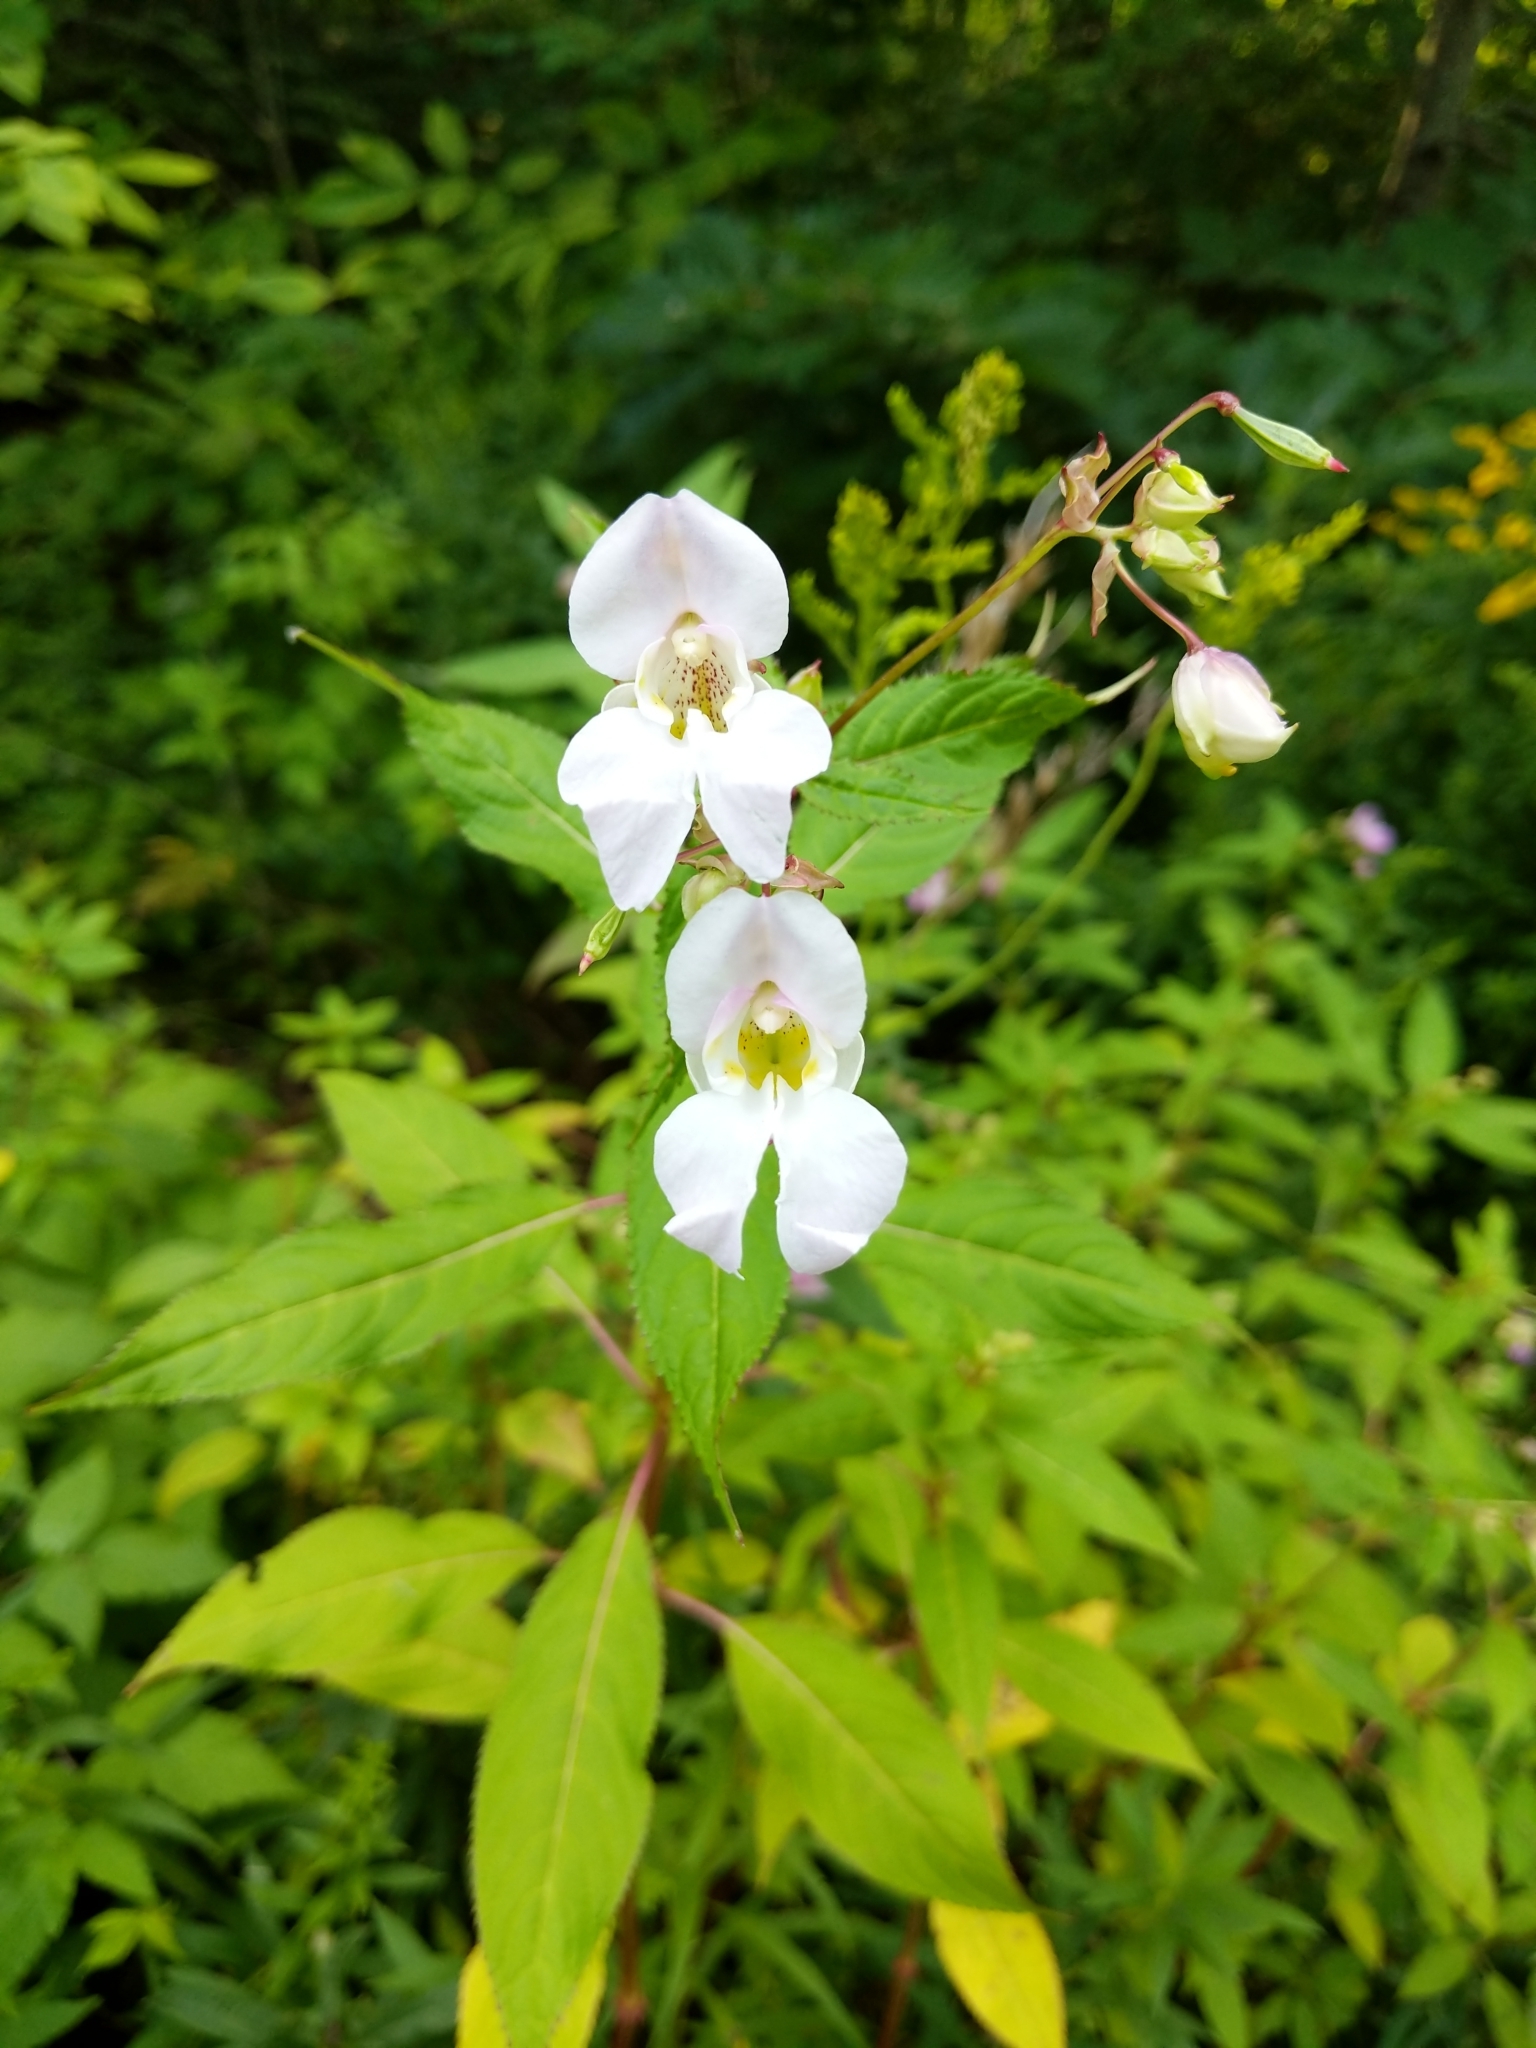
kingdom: Plantae
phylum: Tracheophyta
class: Magnoliopsida
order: Ericales
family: Balsaminaceae
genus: Impatiens
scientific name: Impatiens glandulifera
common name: Himalayan balsam
